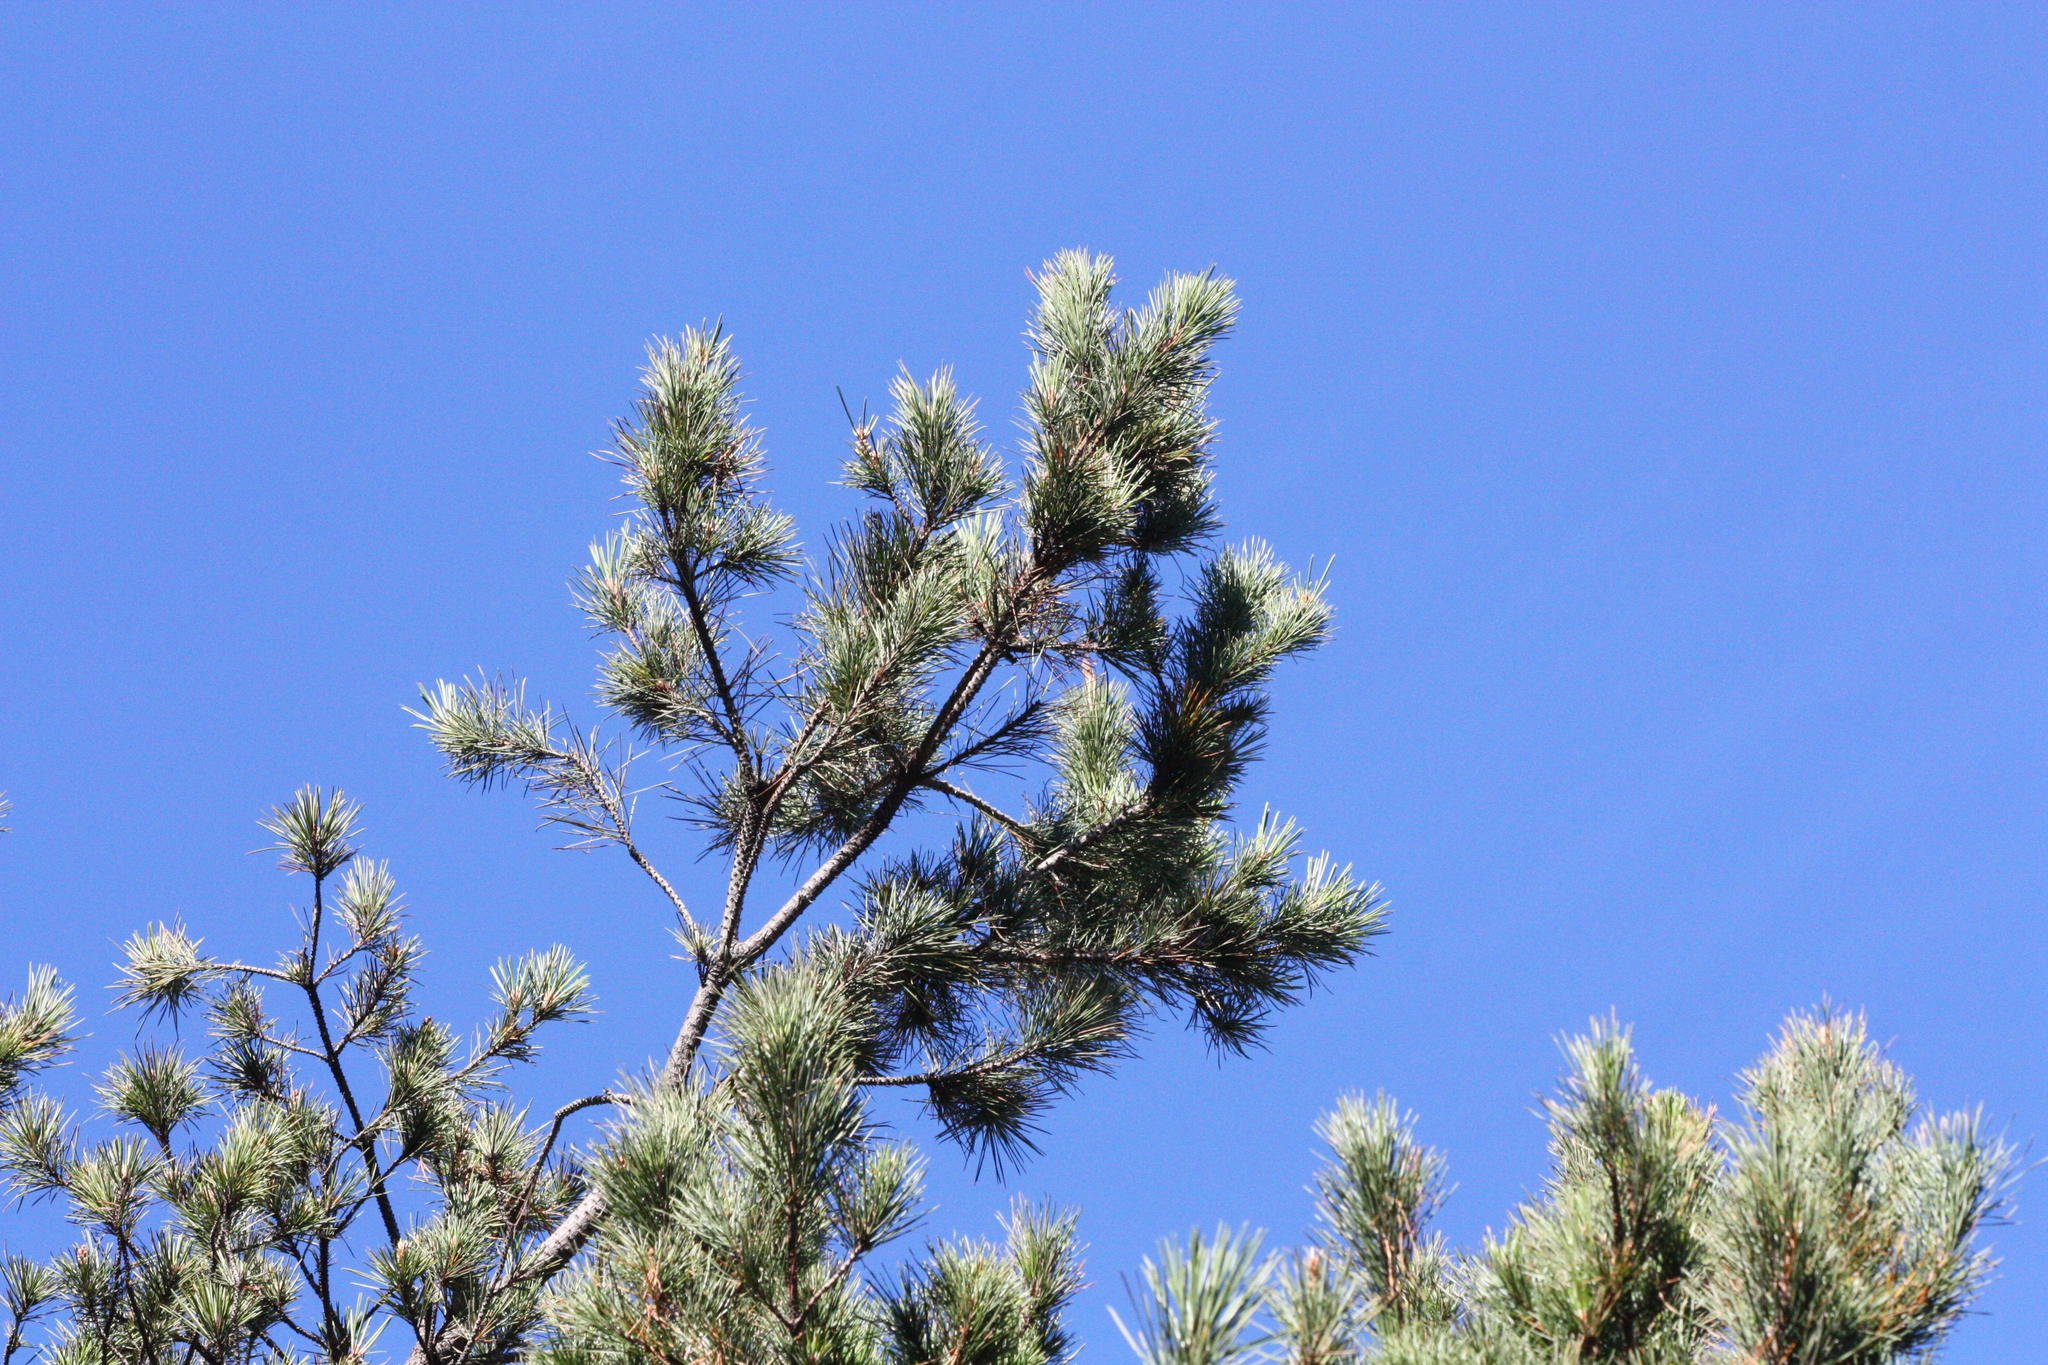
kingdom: Plantae
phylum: Tracheophyta
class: Pinopsida
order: Pinales
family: Pinaceae
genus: Pinus
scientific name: Pinus
